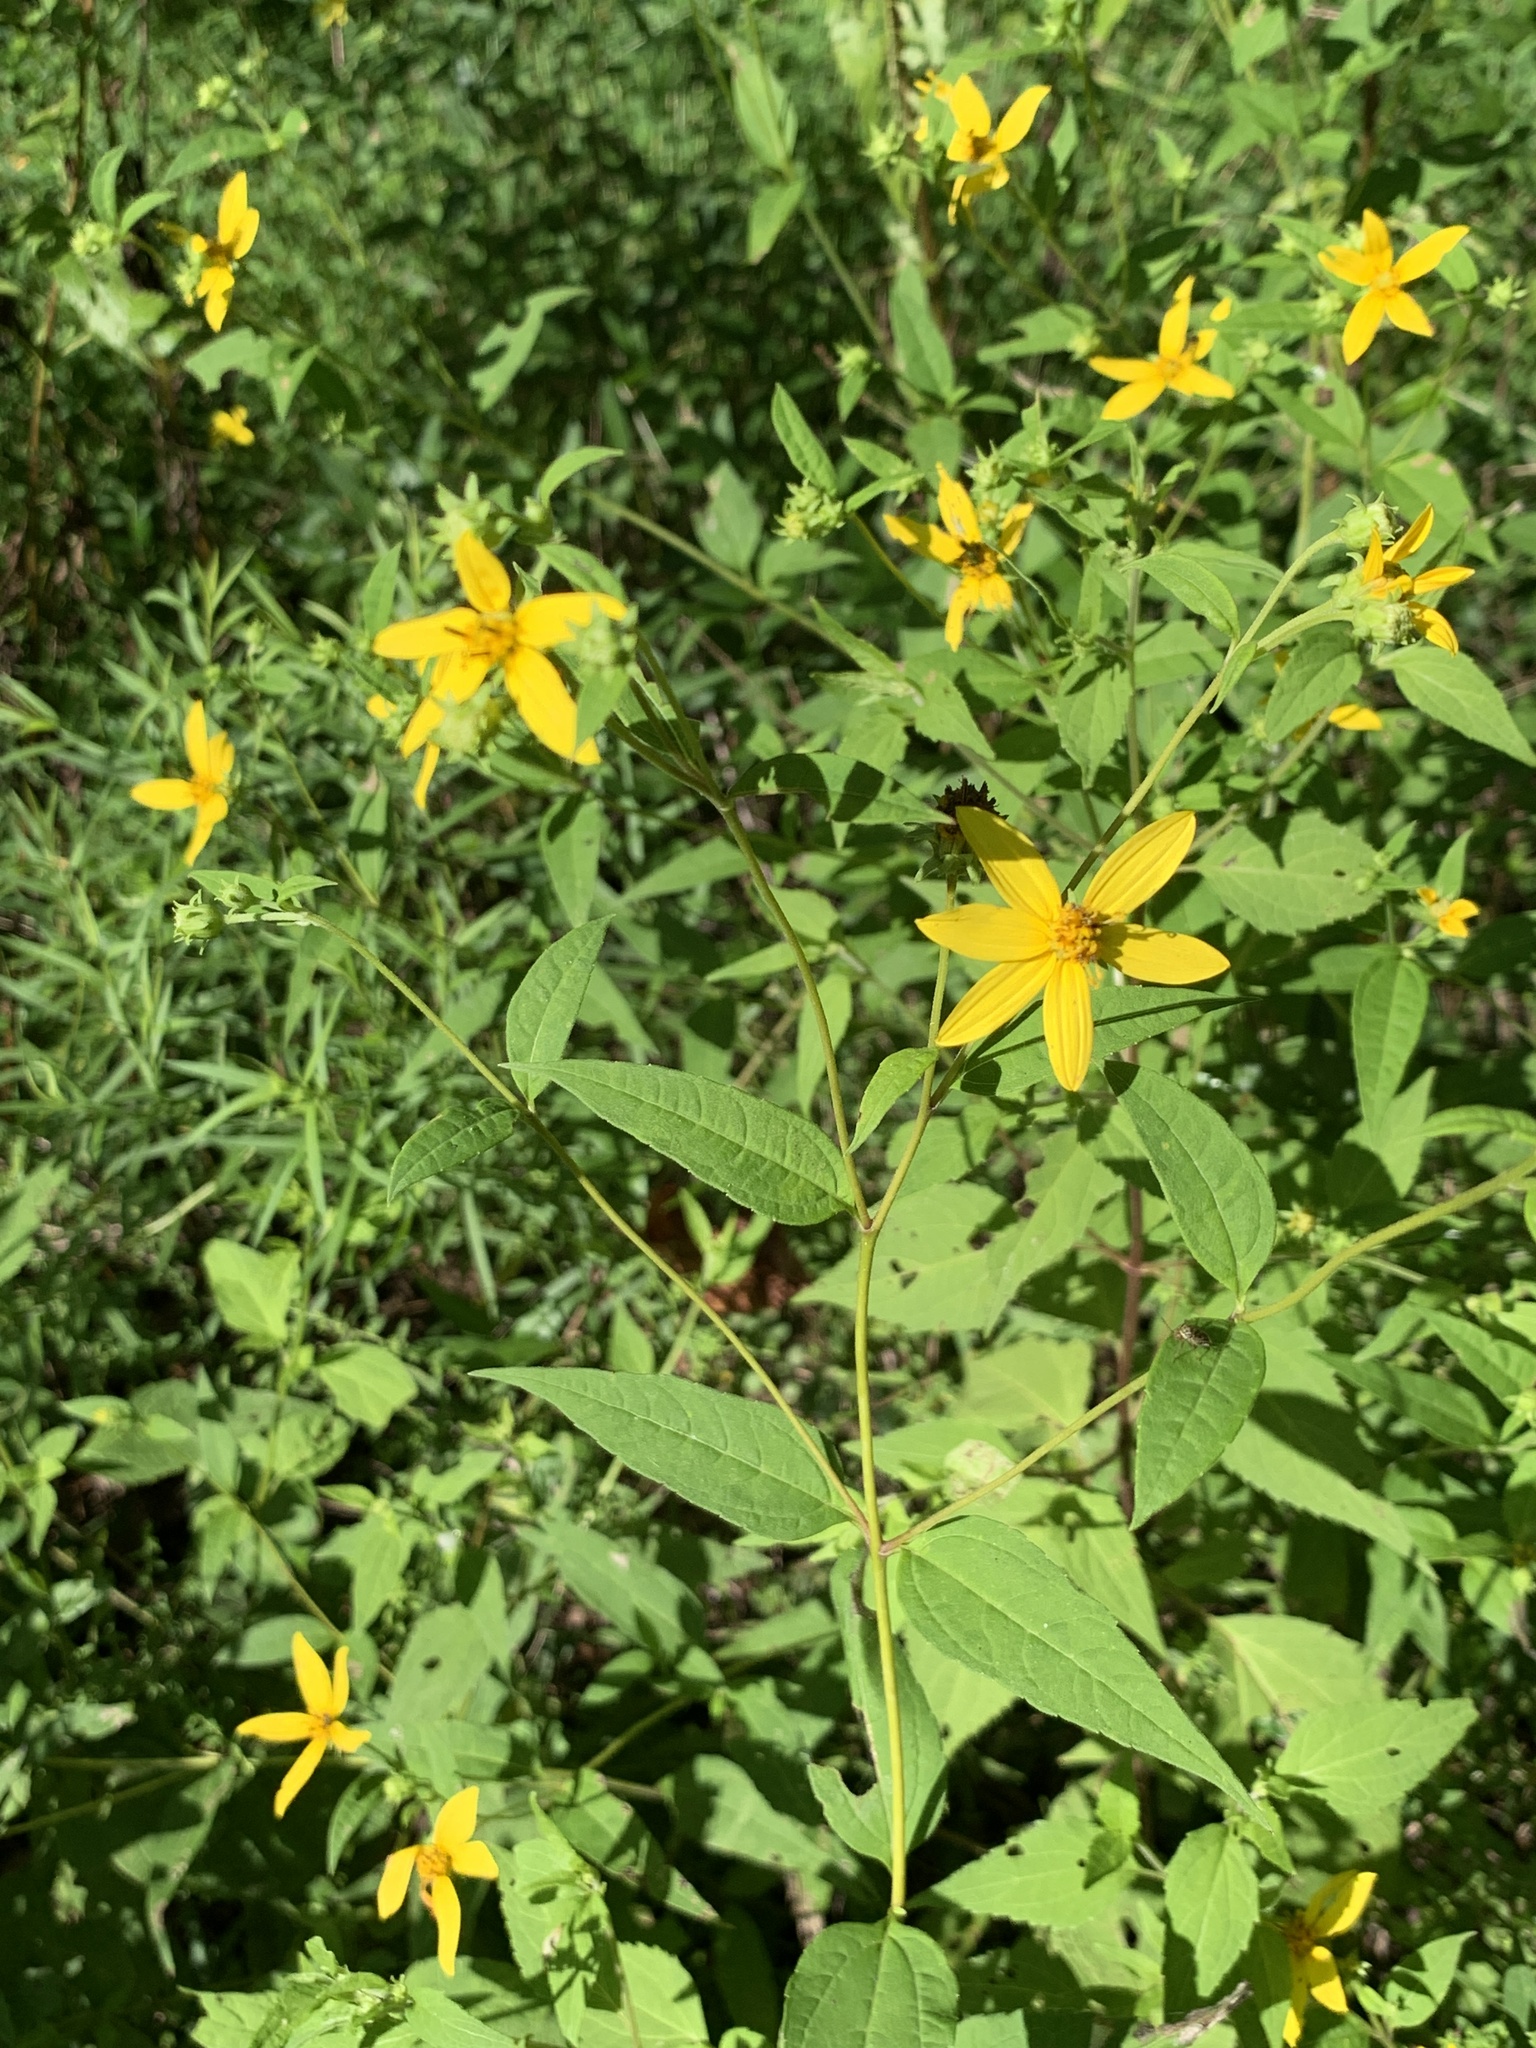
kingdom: Plantae
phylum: Tracheophyta
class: Magnoliopsida
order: Asterales
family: Asteraceae
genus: Helianthus
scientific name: Helianthus microcephalus
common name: Woodland sunflower
